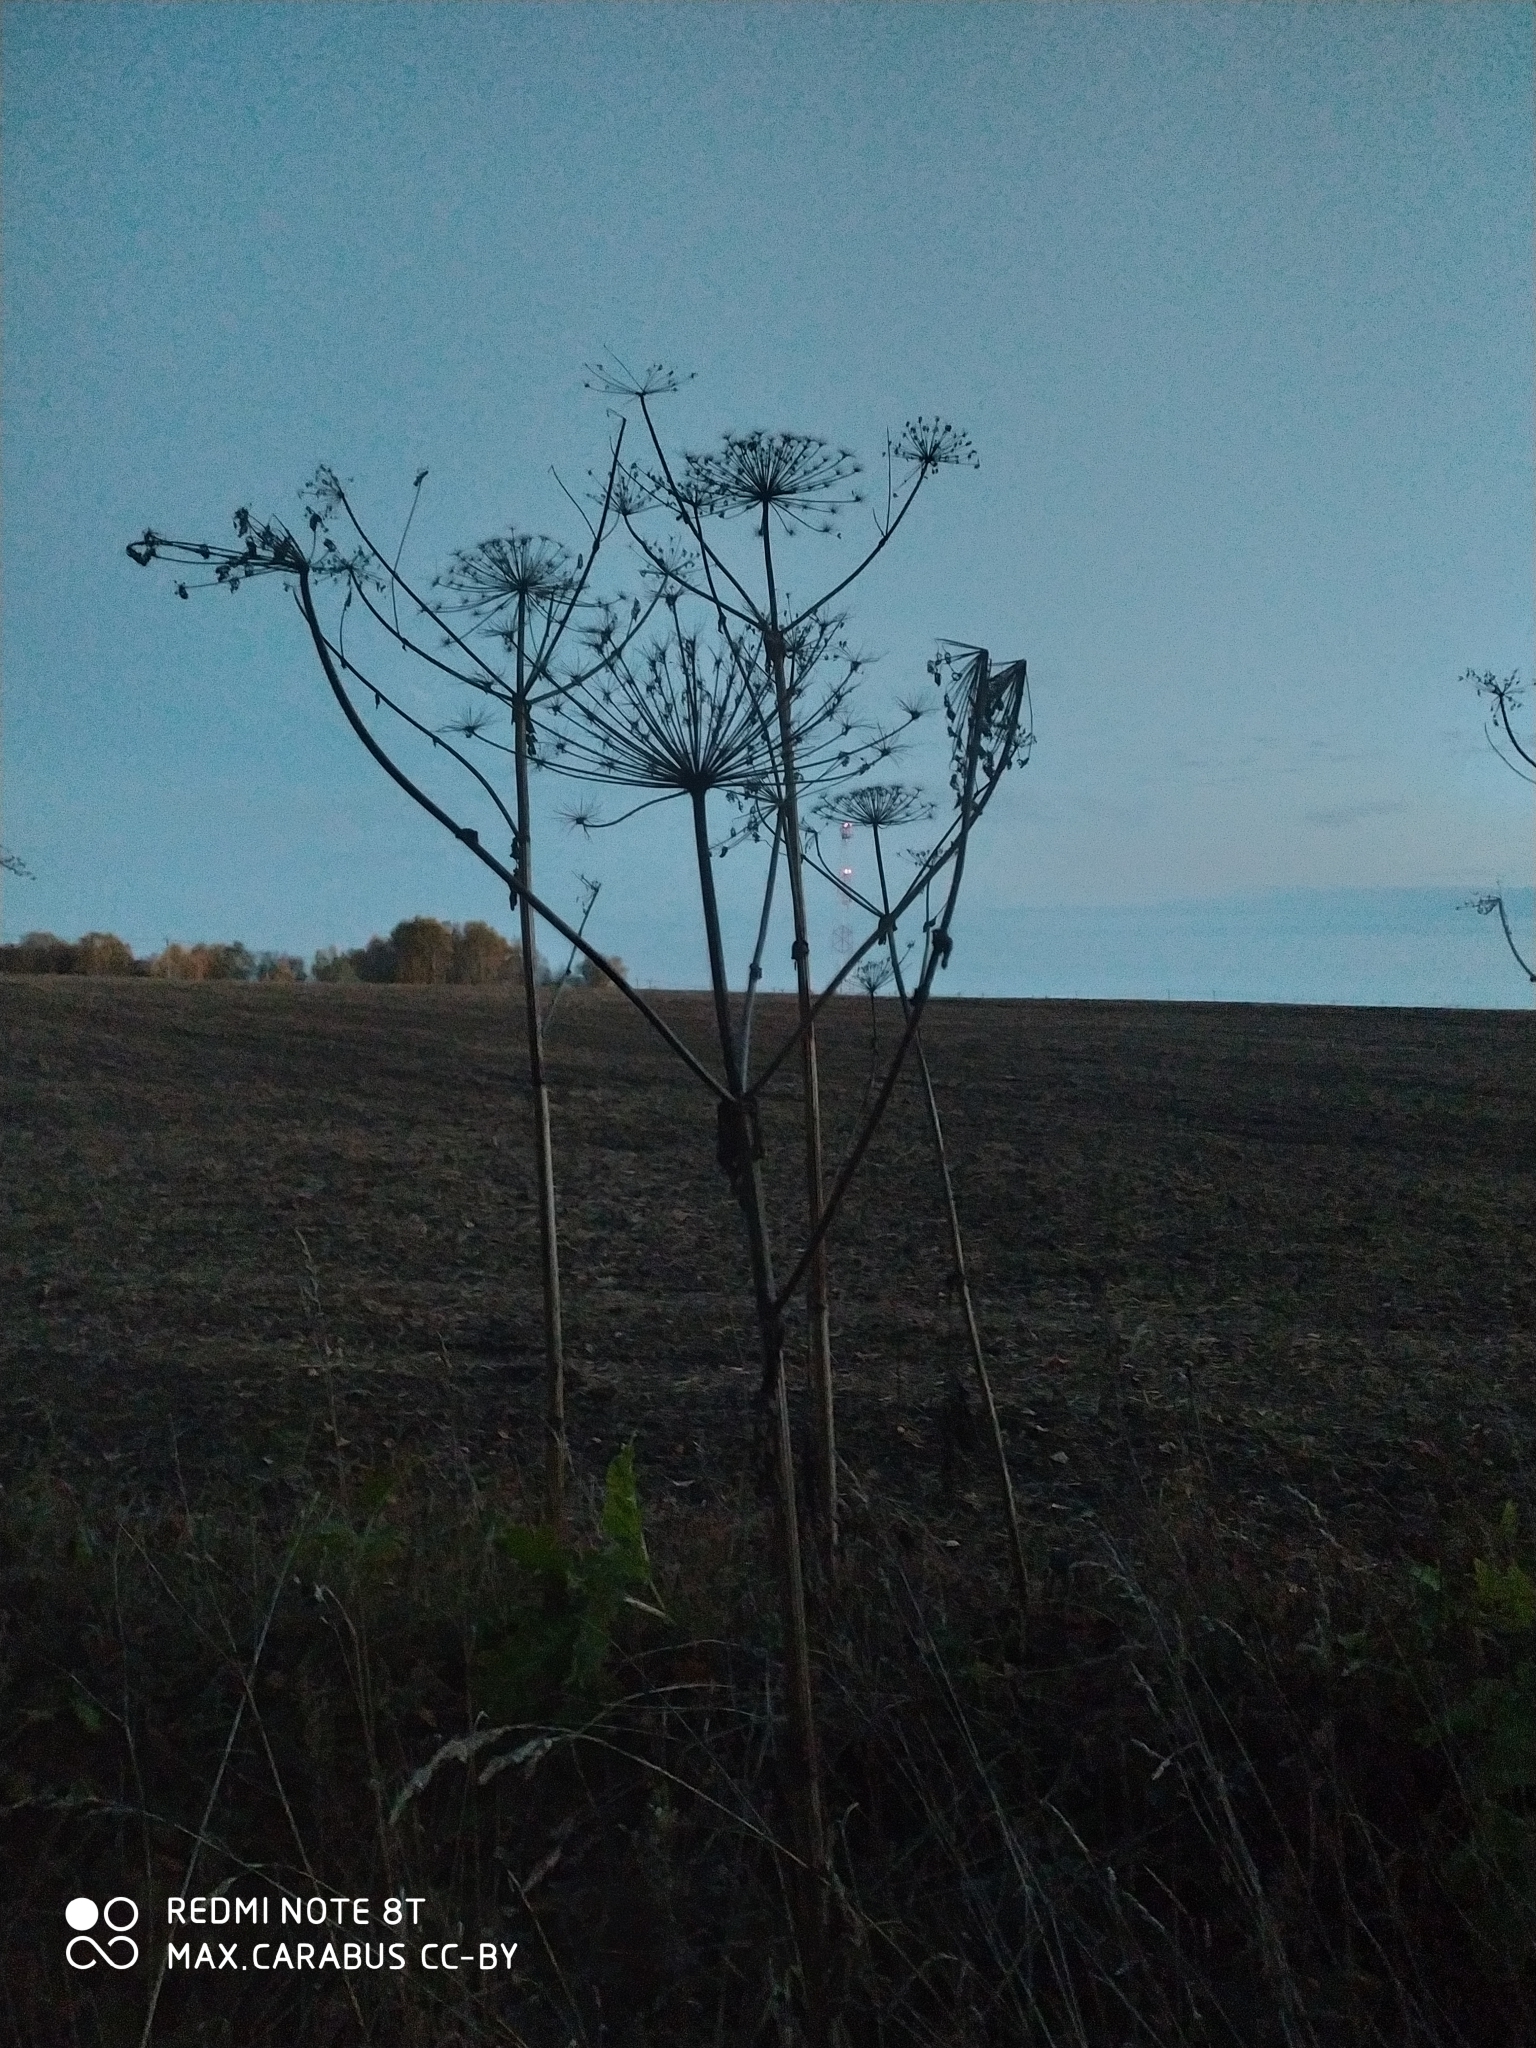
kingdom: Plantae
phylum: Tracheophyta
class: Magnoliopsida
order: Apiales
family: Apiaceae
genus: Heracleum
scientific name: Heracleum sosnowskyi
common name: Sosnowsky's hogweed
